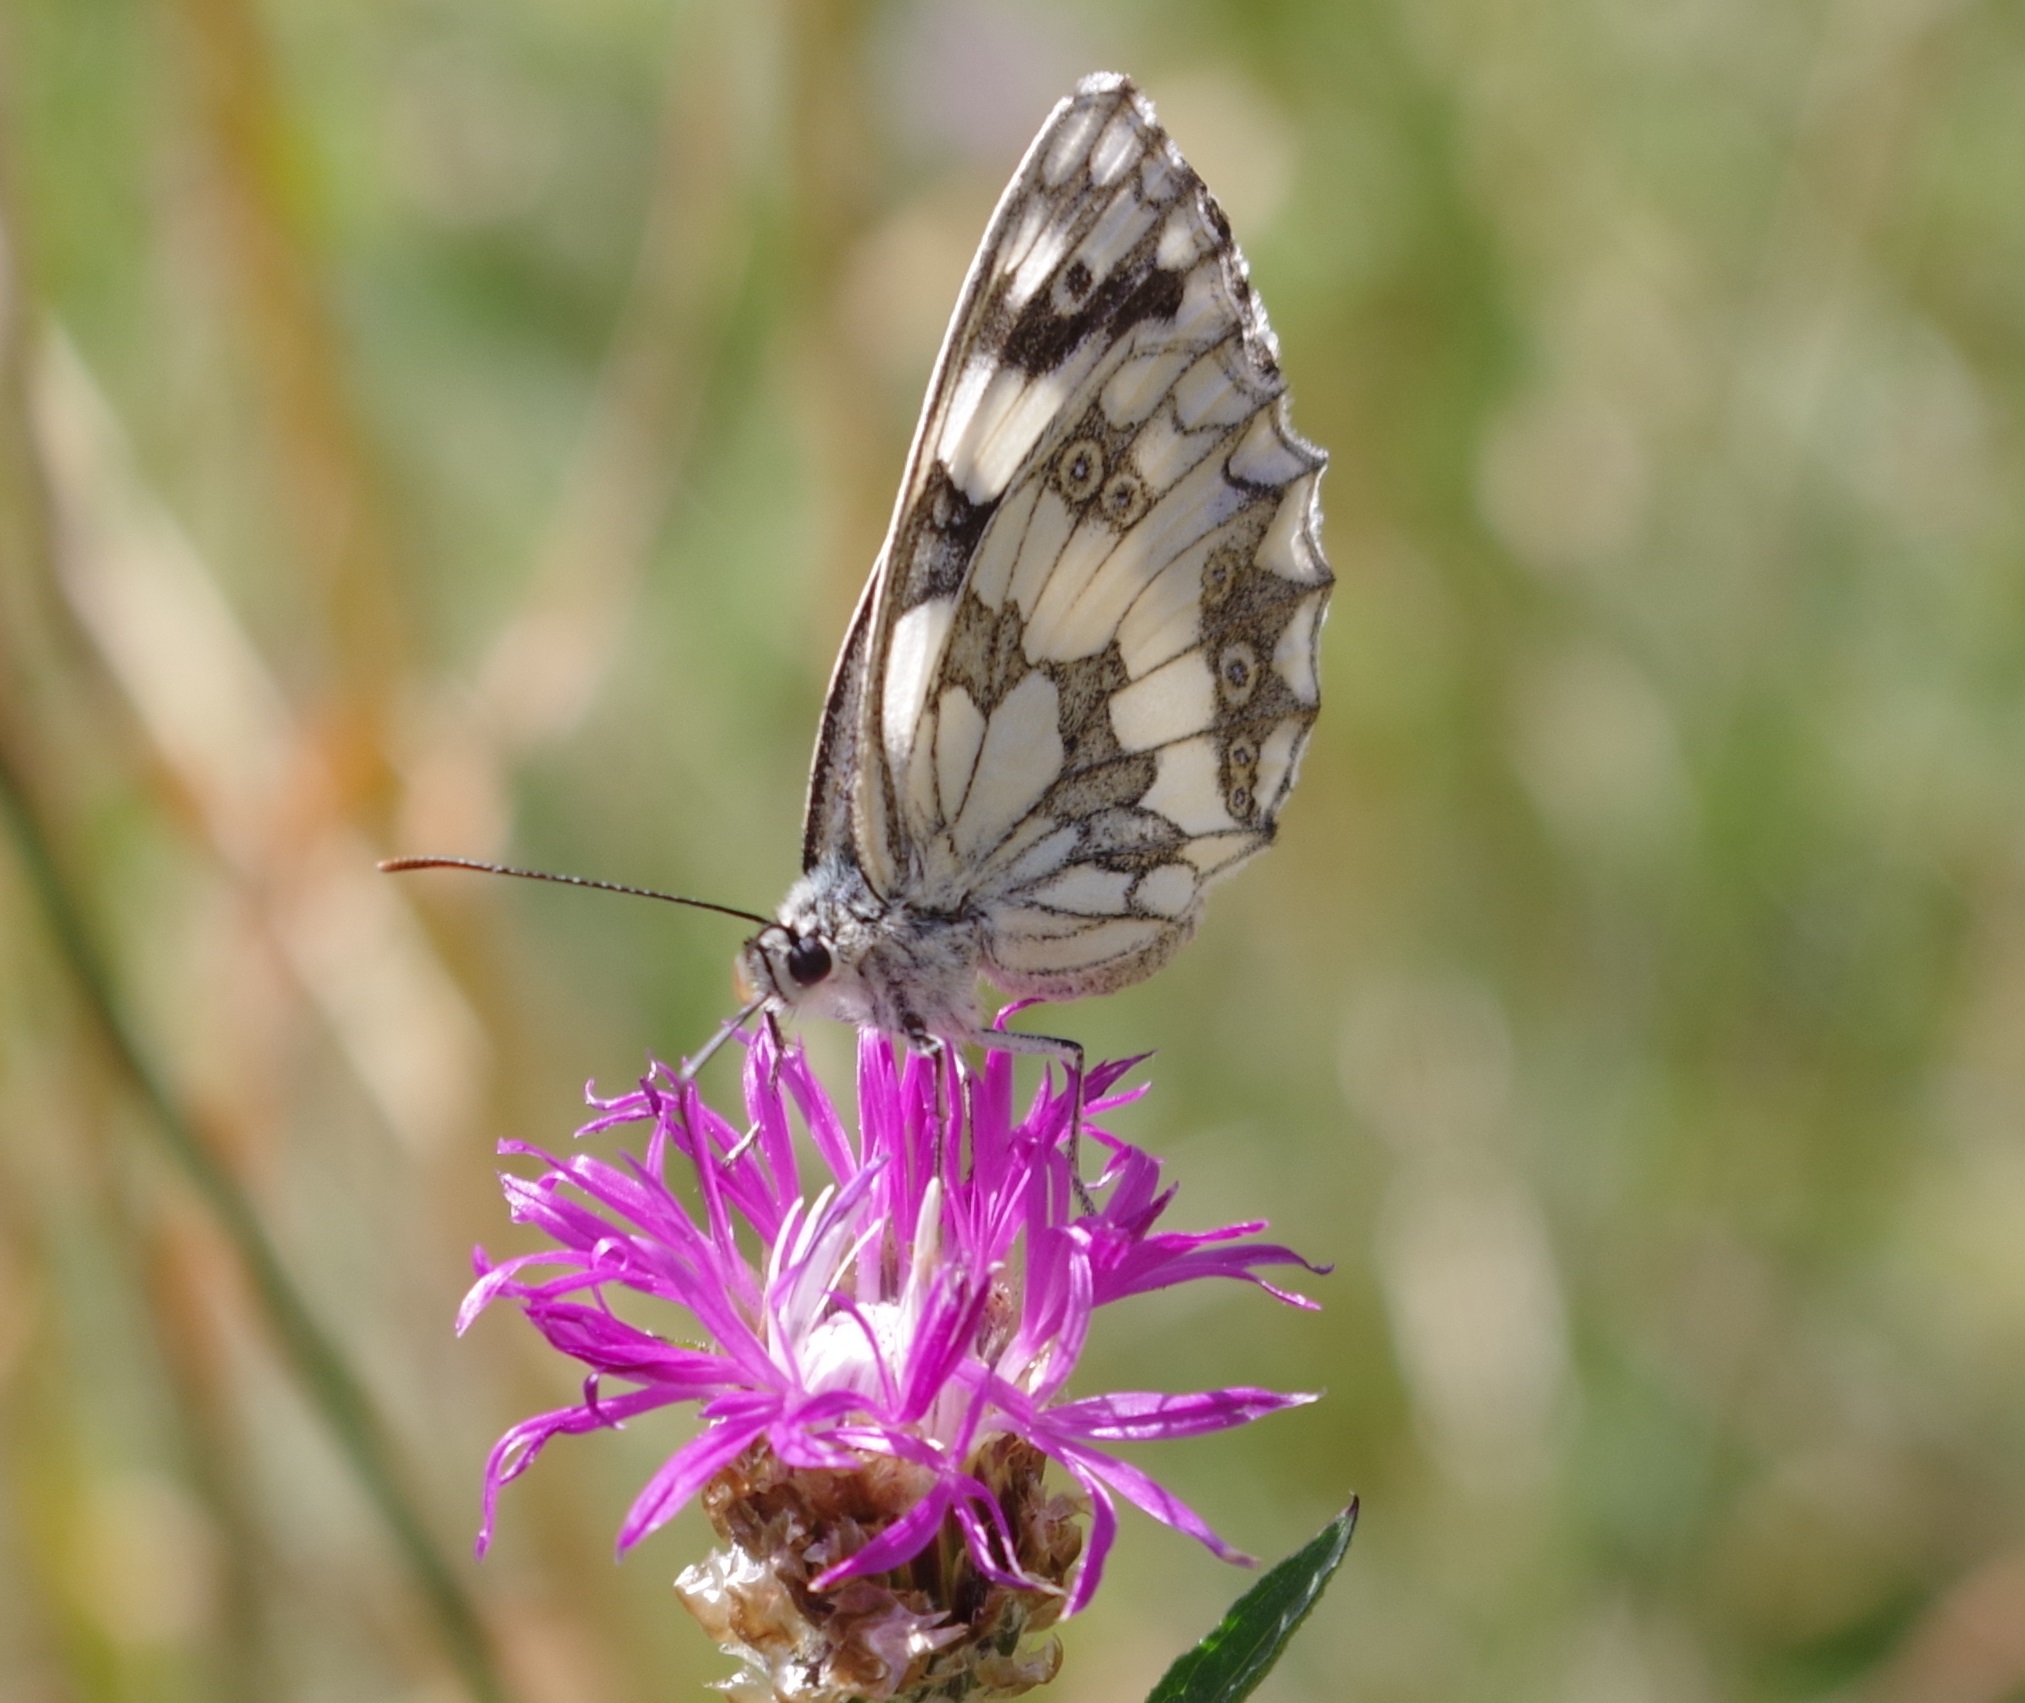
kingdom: Animalia
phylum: Arthropoda
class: Insecta
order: Lepidoptera
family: Nymphalidae
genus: Melanargia
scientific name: Melanargia galathea
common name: Marbled white
